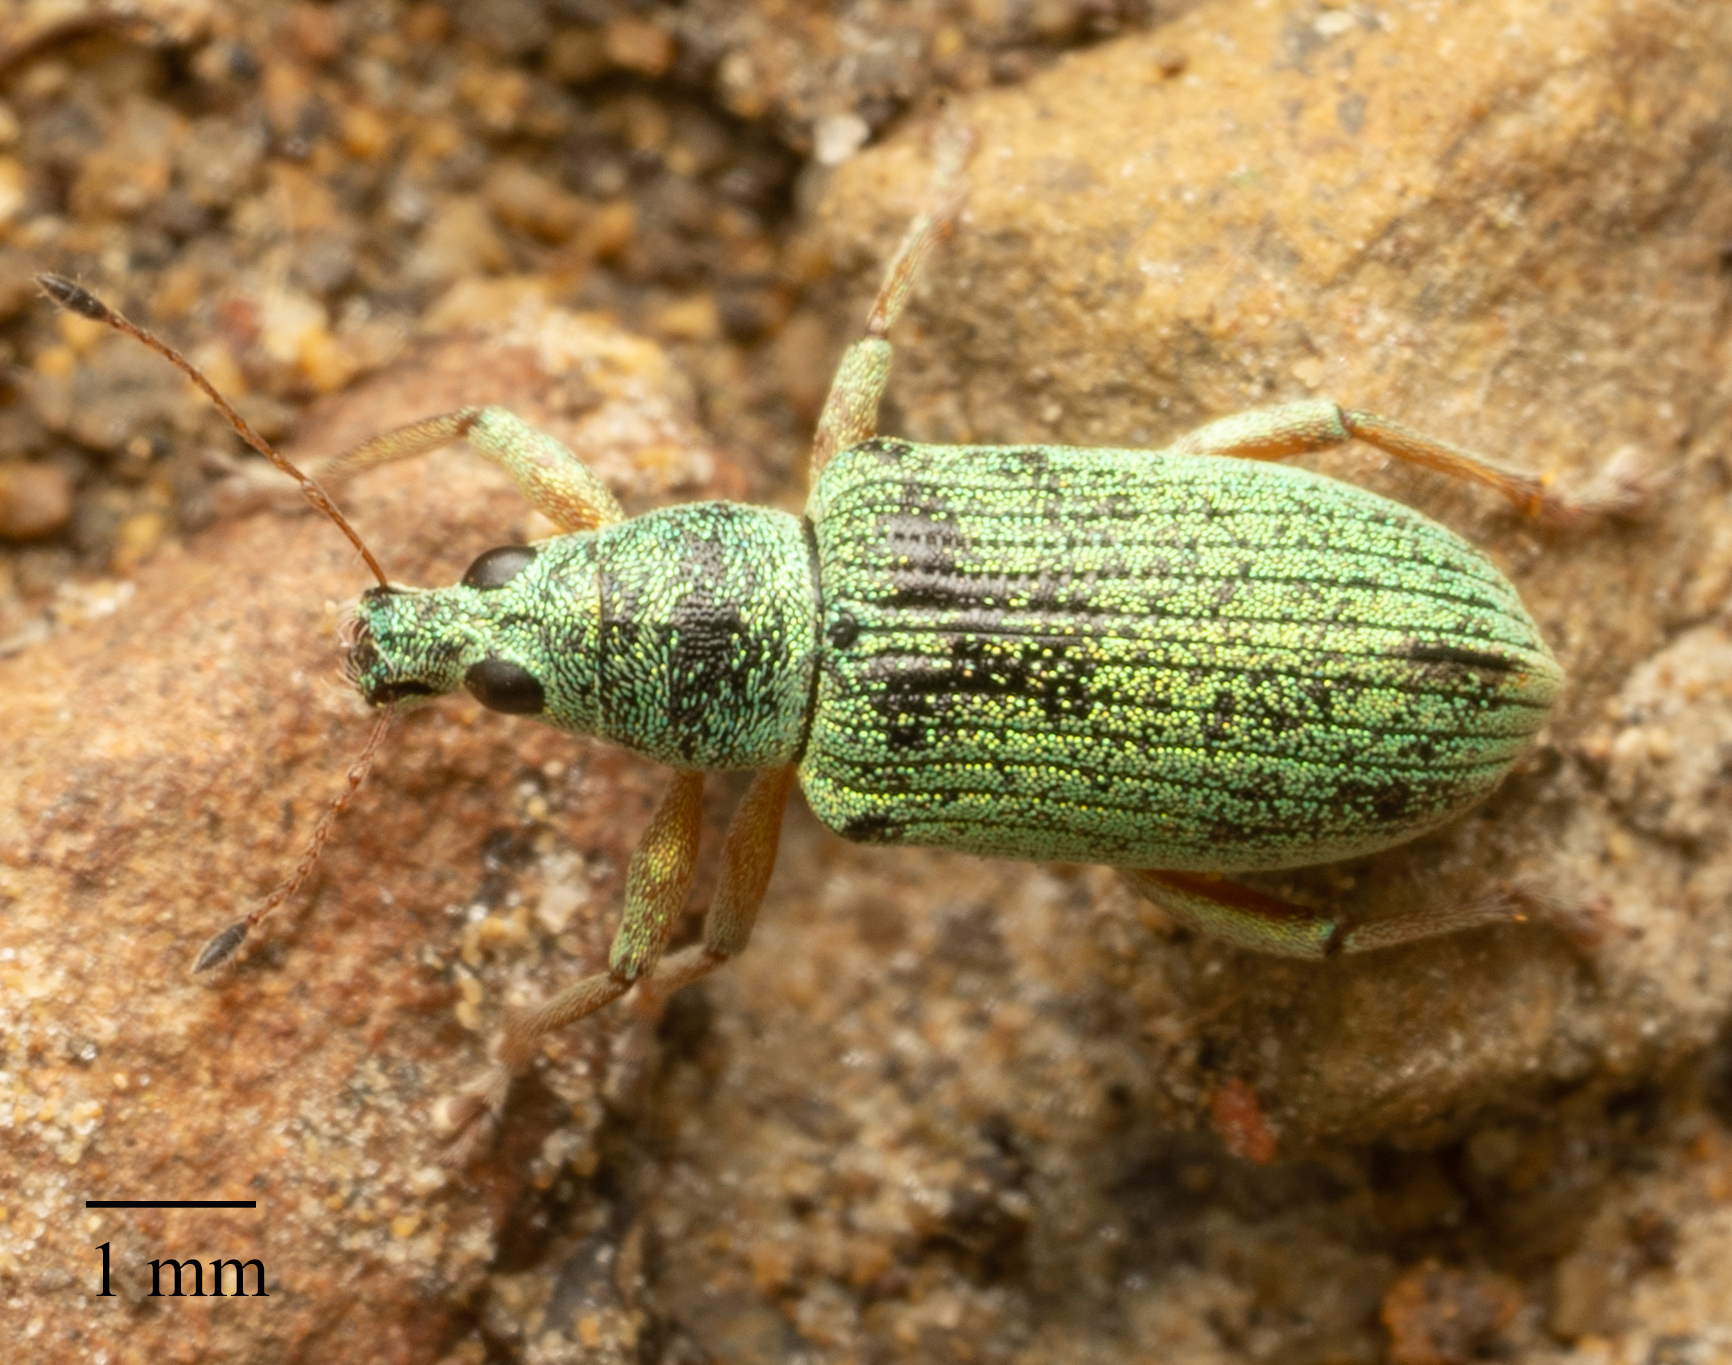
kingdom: Animalia
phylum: Arthropoda
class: Insecta
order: Coleoptera
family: Curculionidae
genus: Polydrusus
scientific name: Polydrusus formosus
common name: Weevil
